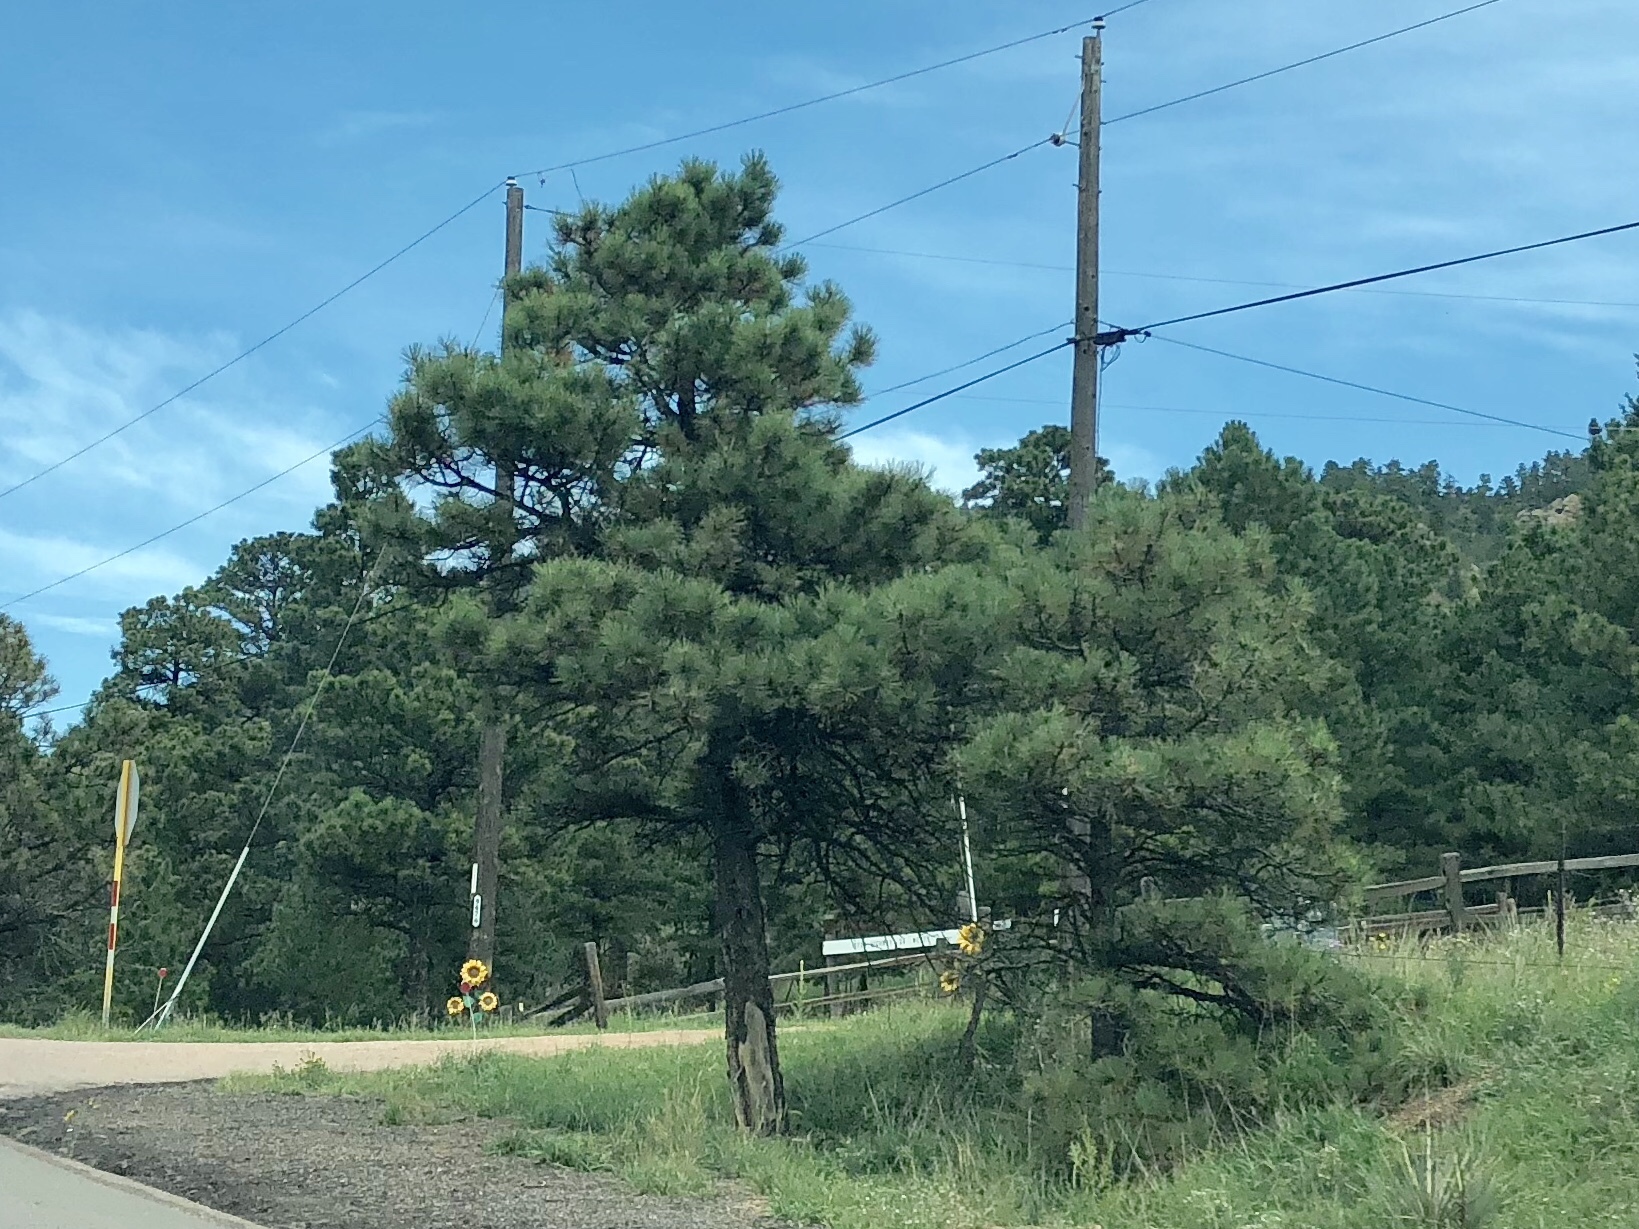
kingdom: Plantae
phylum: Tracheophyta
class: Pinopsida
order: Pinales
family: Pinaceae
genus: Pinus
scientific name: Pinus ponderosa
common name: Western yellow-pine
